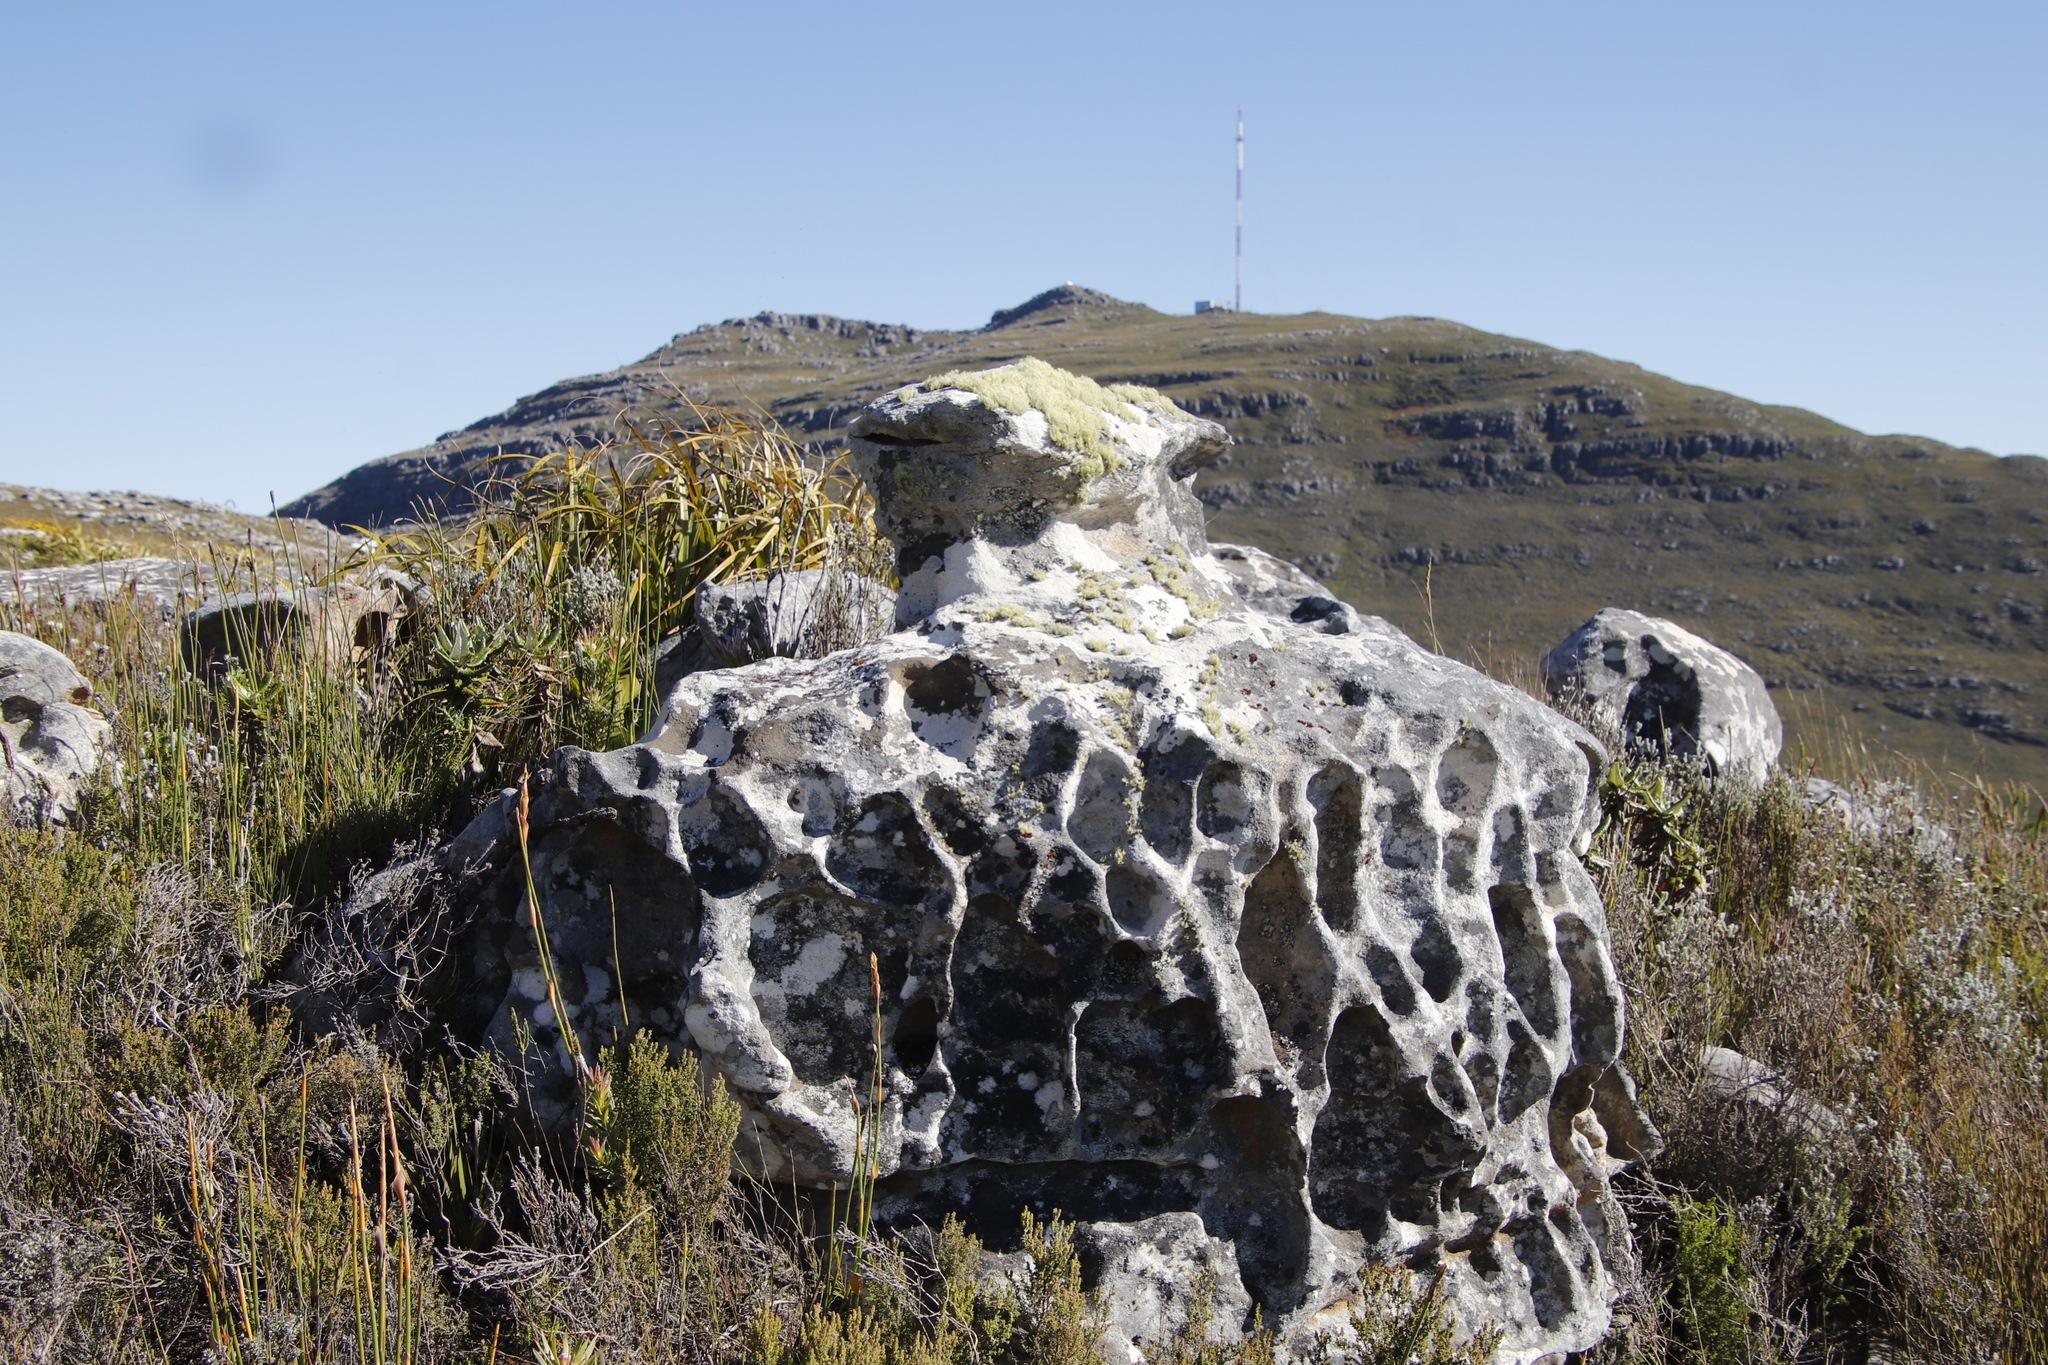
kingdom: Fungi
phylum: Ascomycota
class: Lecanoromycetes
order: Pertusariales
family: Ochrolechiaceae
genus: Ochrolechia
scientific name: Ochrolechia parella
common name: Crab's eye lichen
